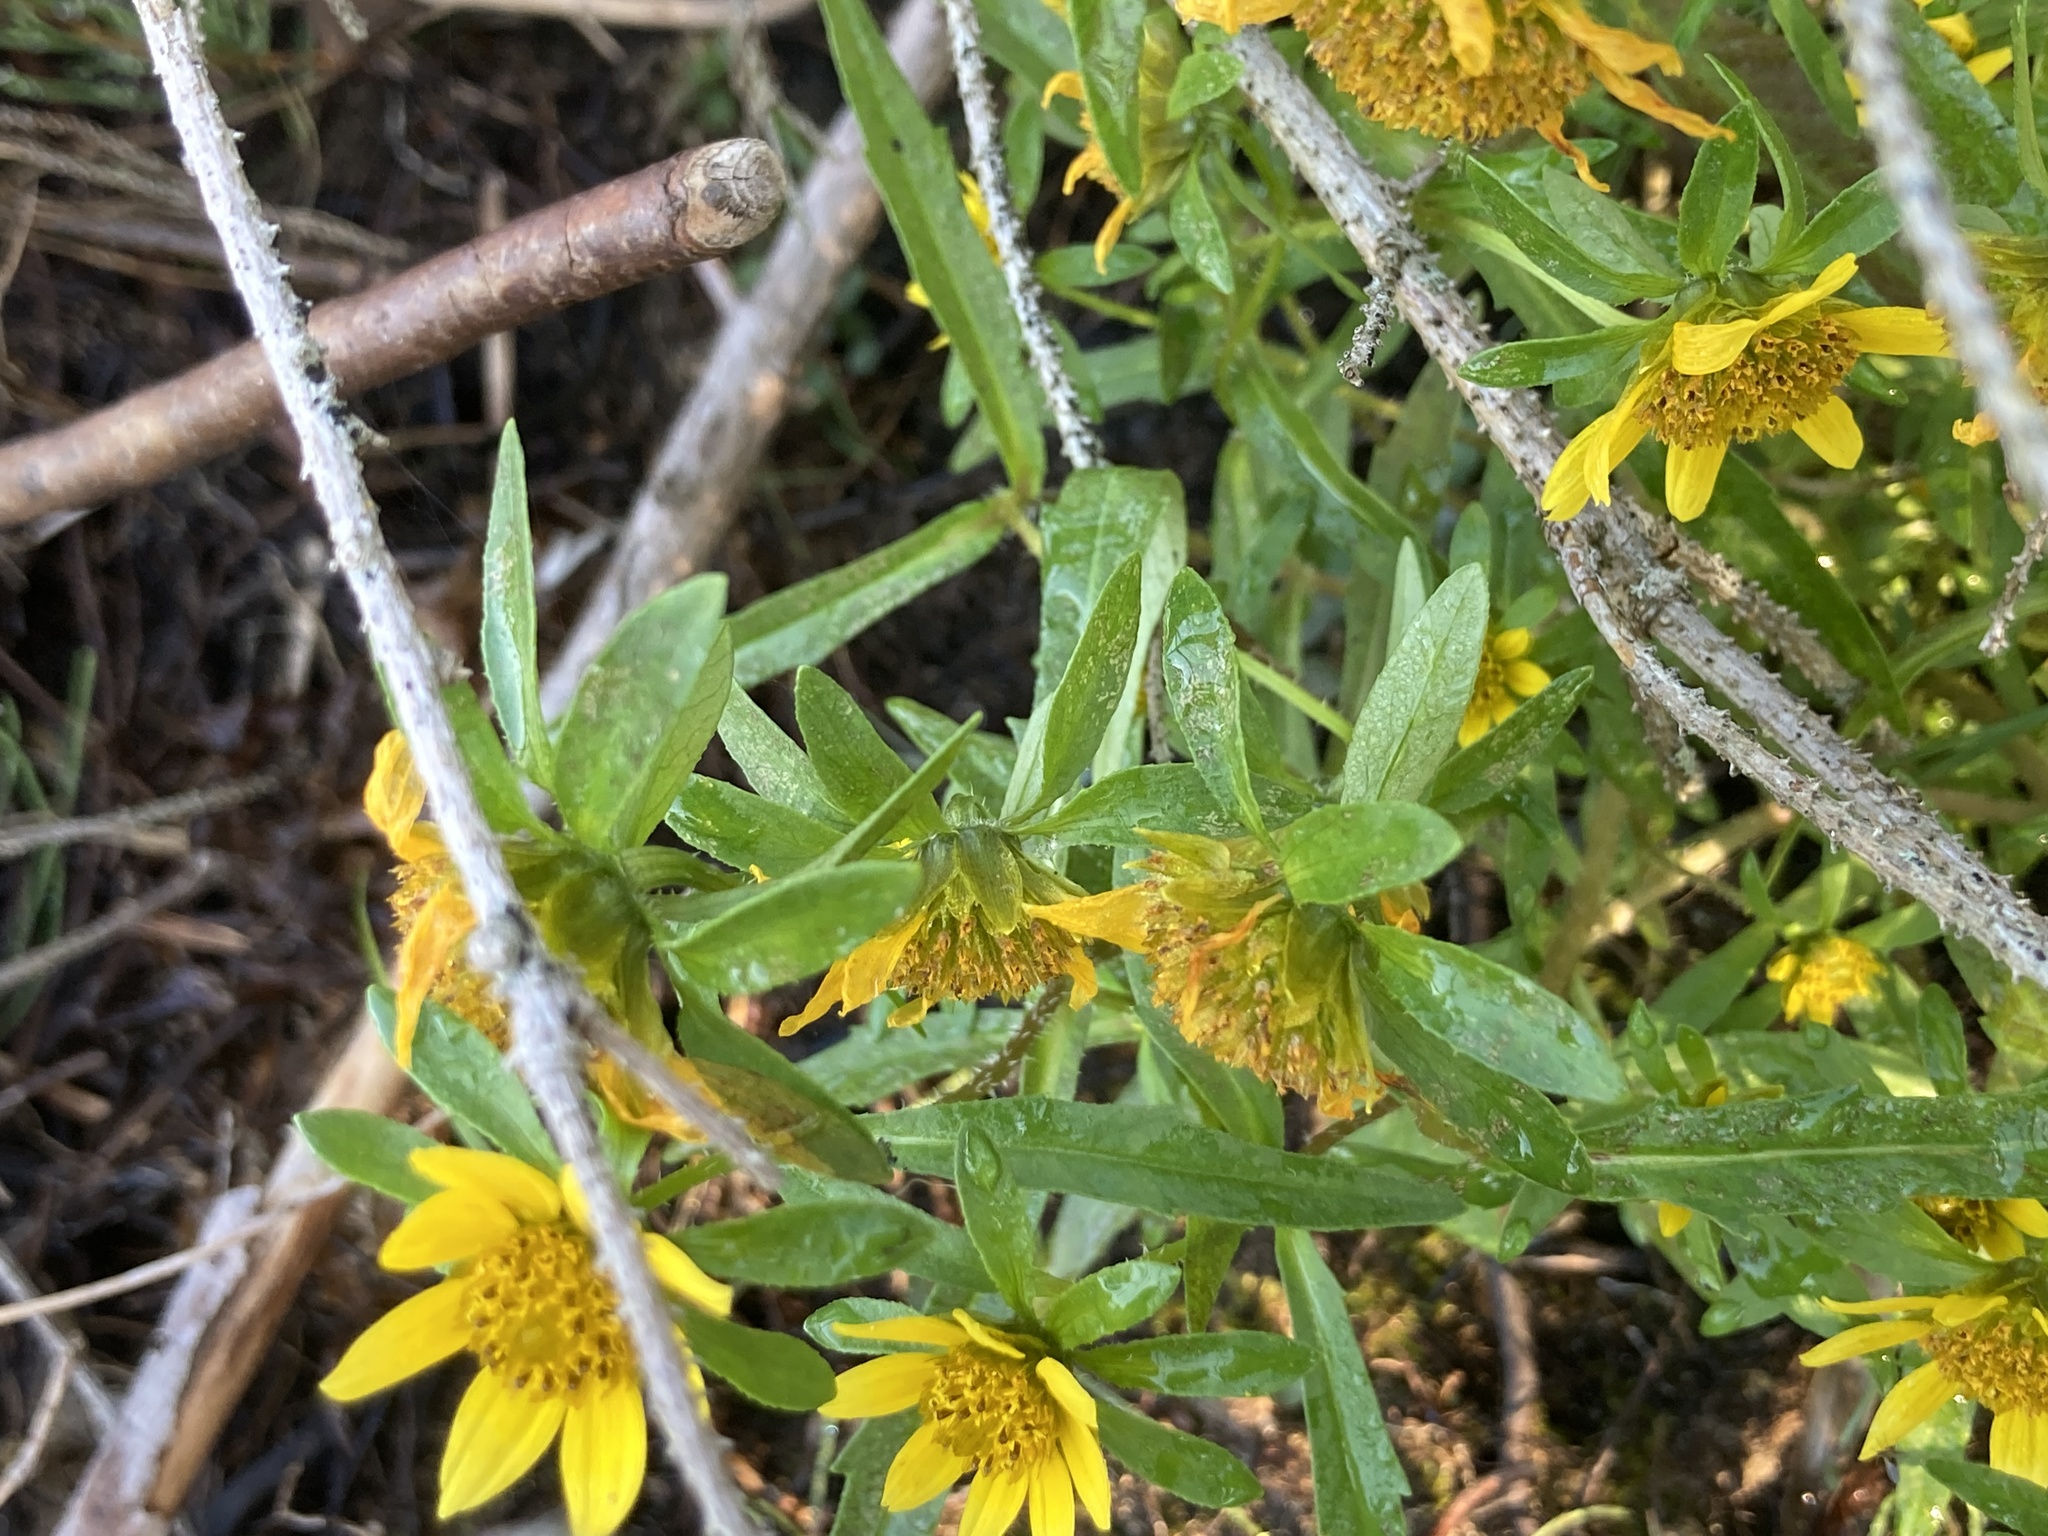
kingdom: Plantae
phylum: Tracheophyta
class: Magnoliopsida
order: Asterales
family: Asteraceae
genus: Bidens
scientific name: Bidens cernua
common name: Nodding bur-marigold
